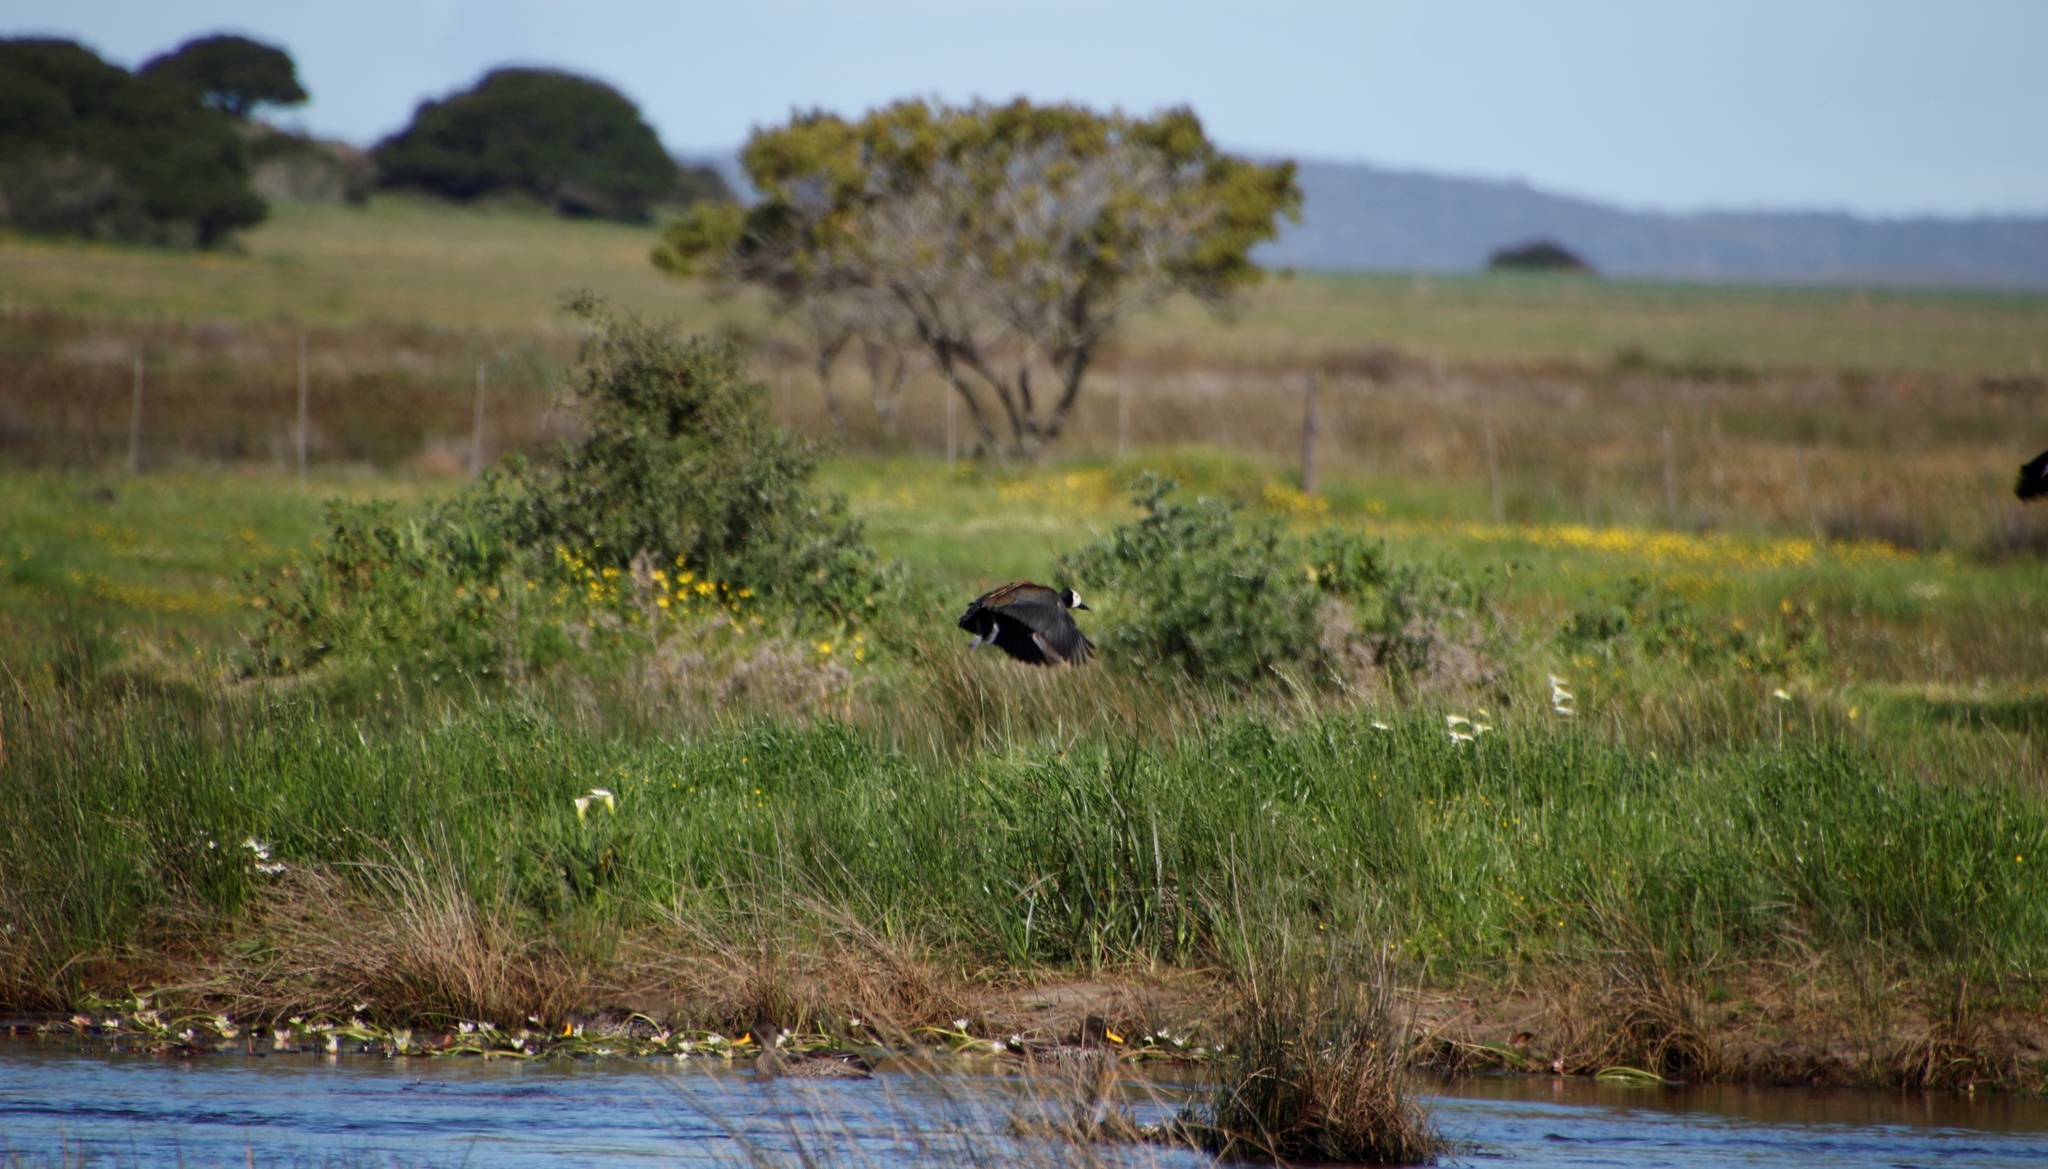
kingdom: Animalia
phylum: Chordata
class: Aves
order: Anseriformes
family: Anatidae
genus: Dendrocygna
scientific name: Dendrocygna viduata
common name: White-faced whistling duck
